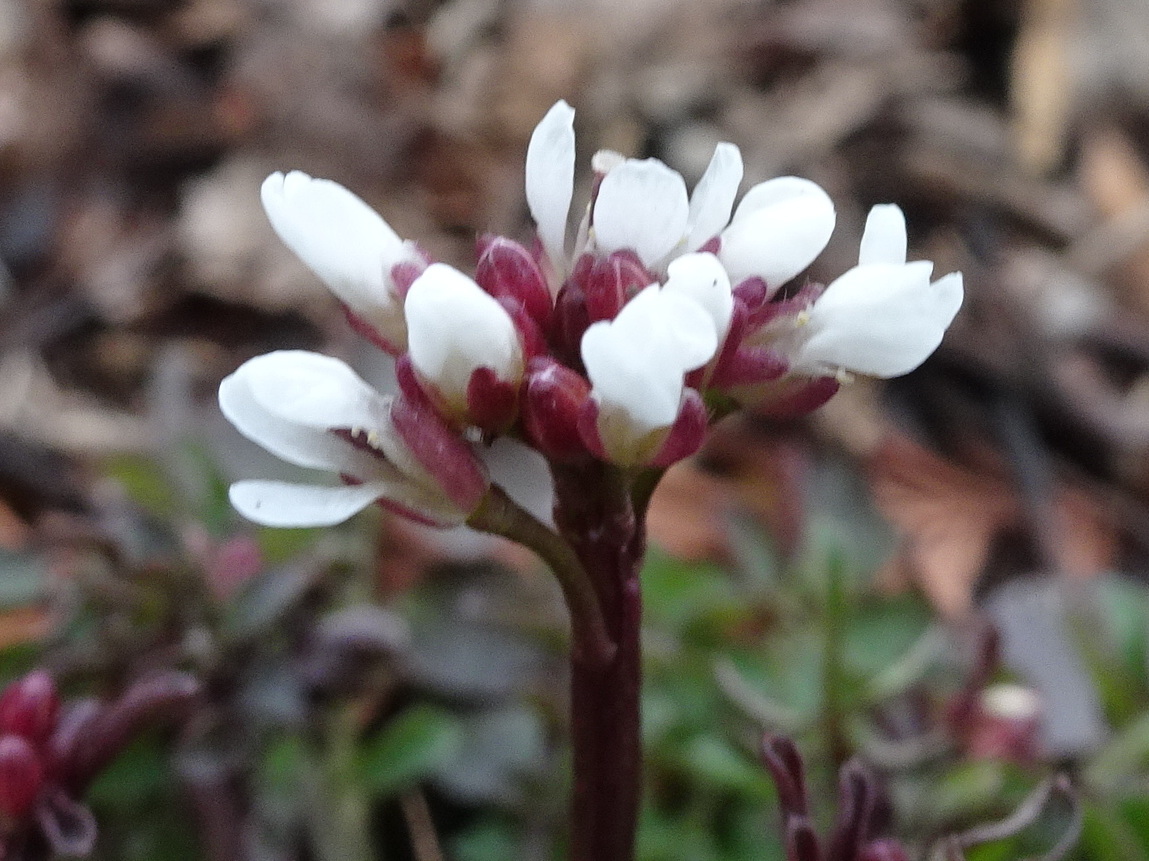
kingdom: Plantae
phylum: Tracheophyta
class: Magnoliopsida
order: Brassicales
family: Brassicaceae
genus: Cardamine
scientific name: Cardamine hirsuta
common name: Hairy bittercress
